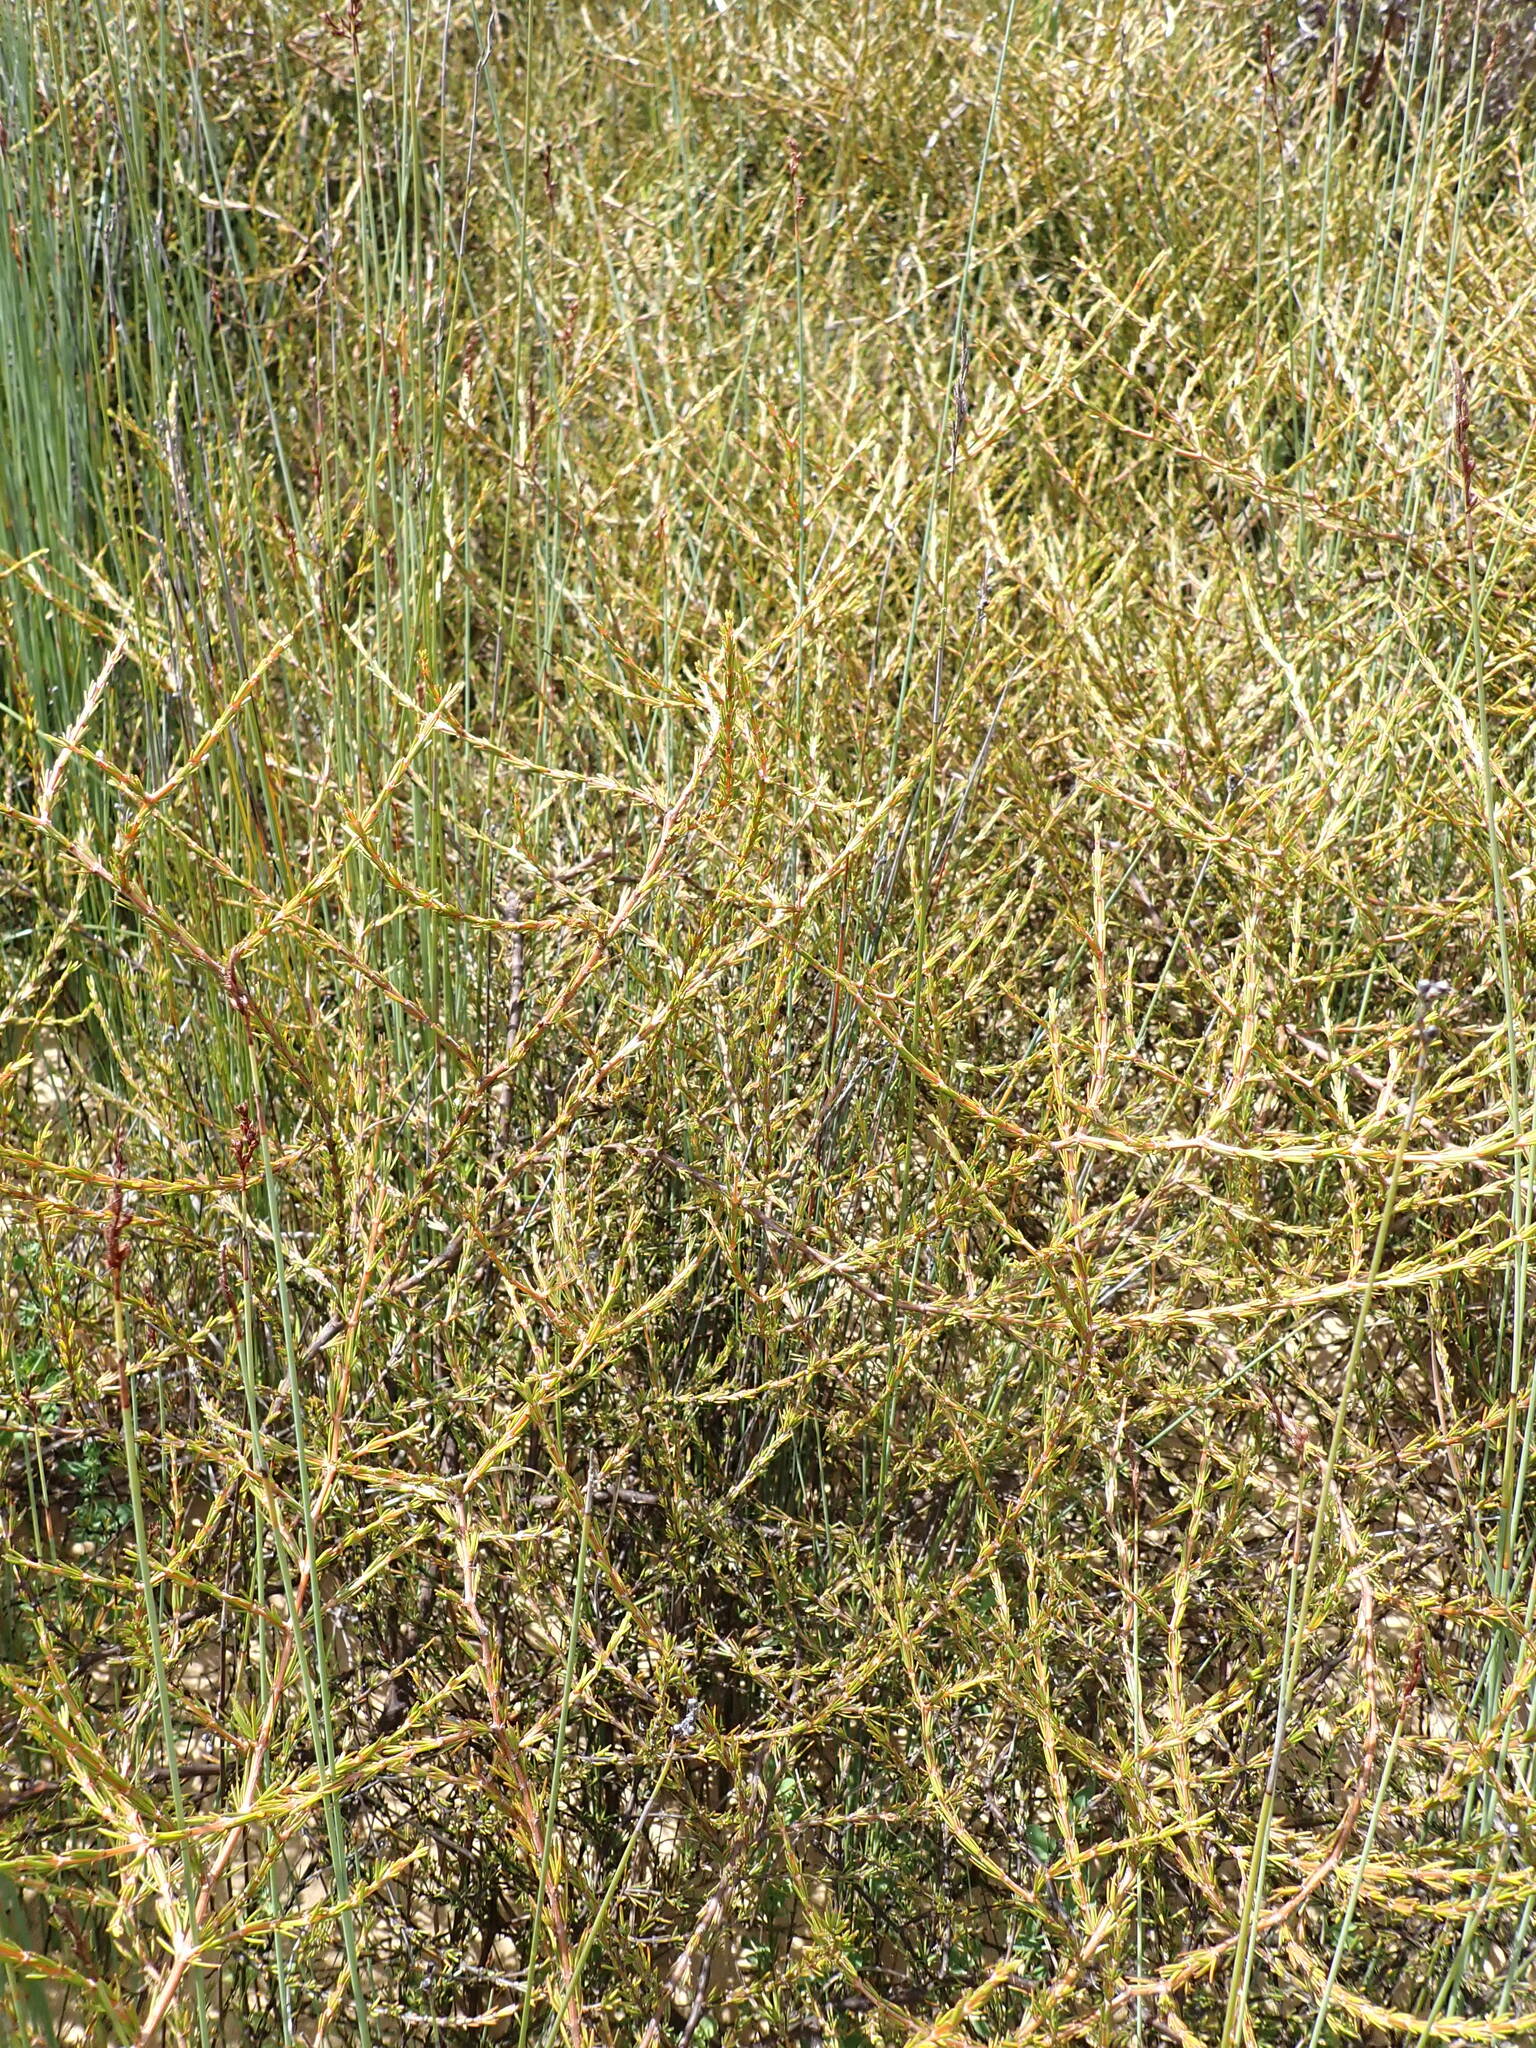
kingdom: Plantae
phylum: Tracheophyta
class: Liliopsida
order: Poales
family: Cyperaceae
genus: Machaerina
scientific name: Machaerina juncea
